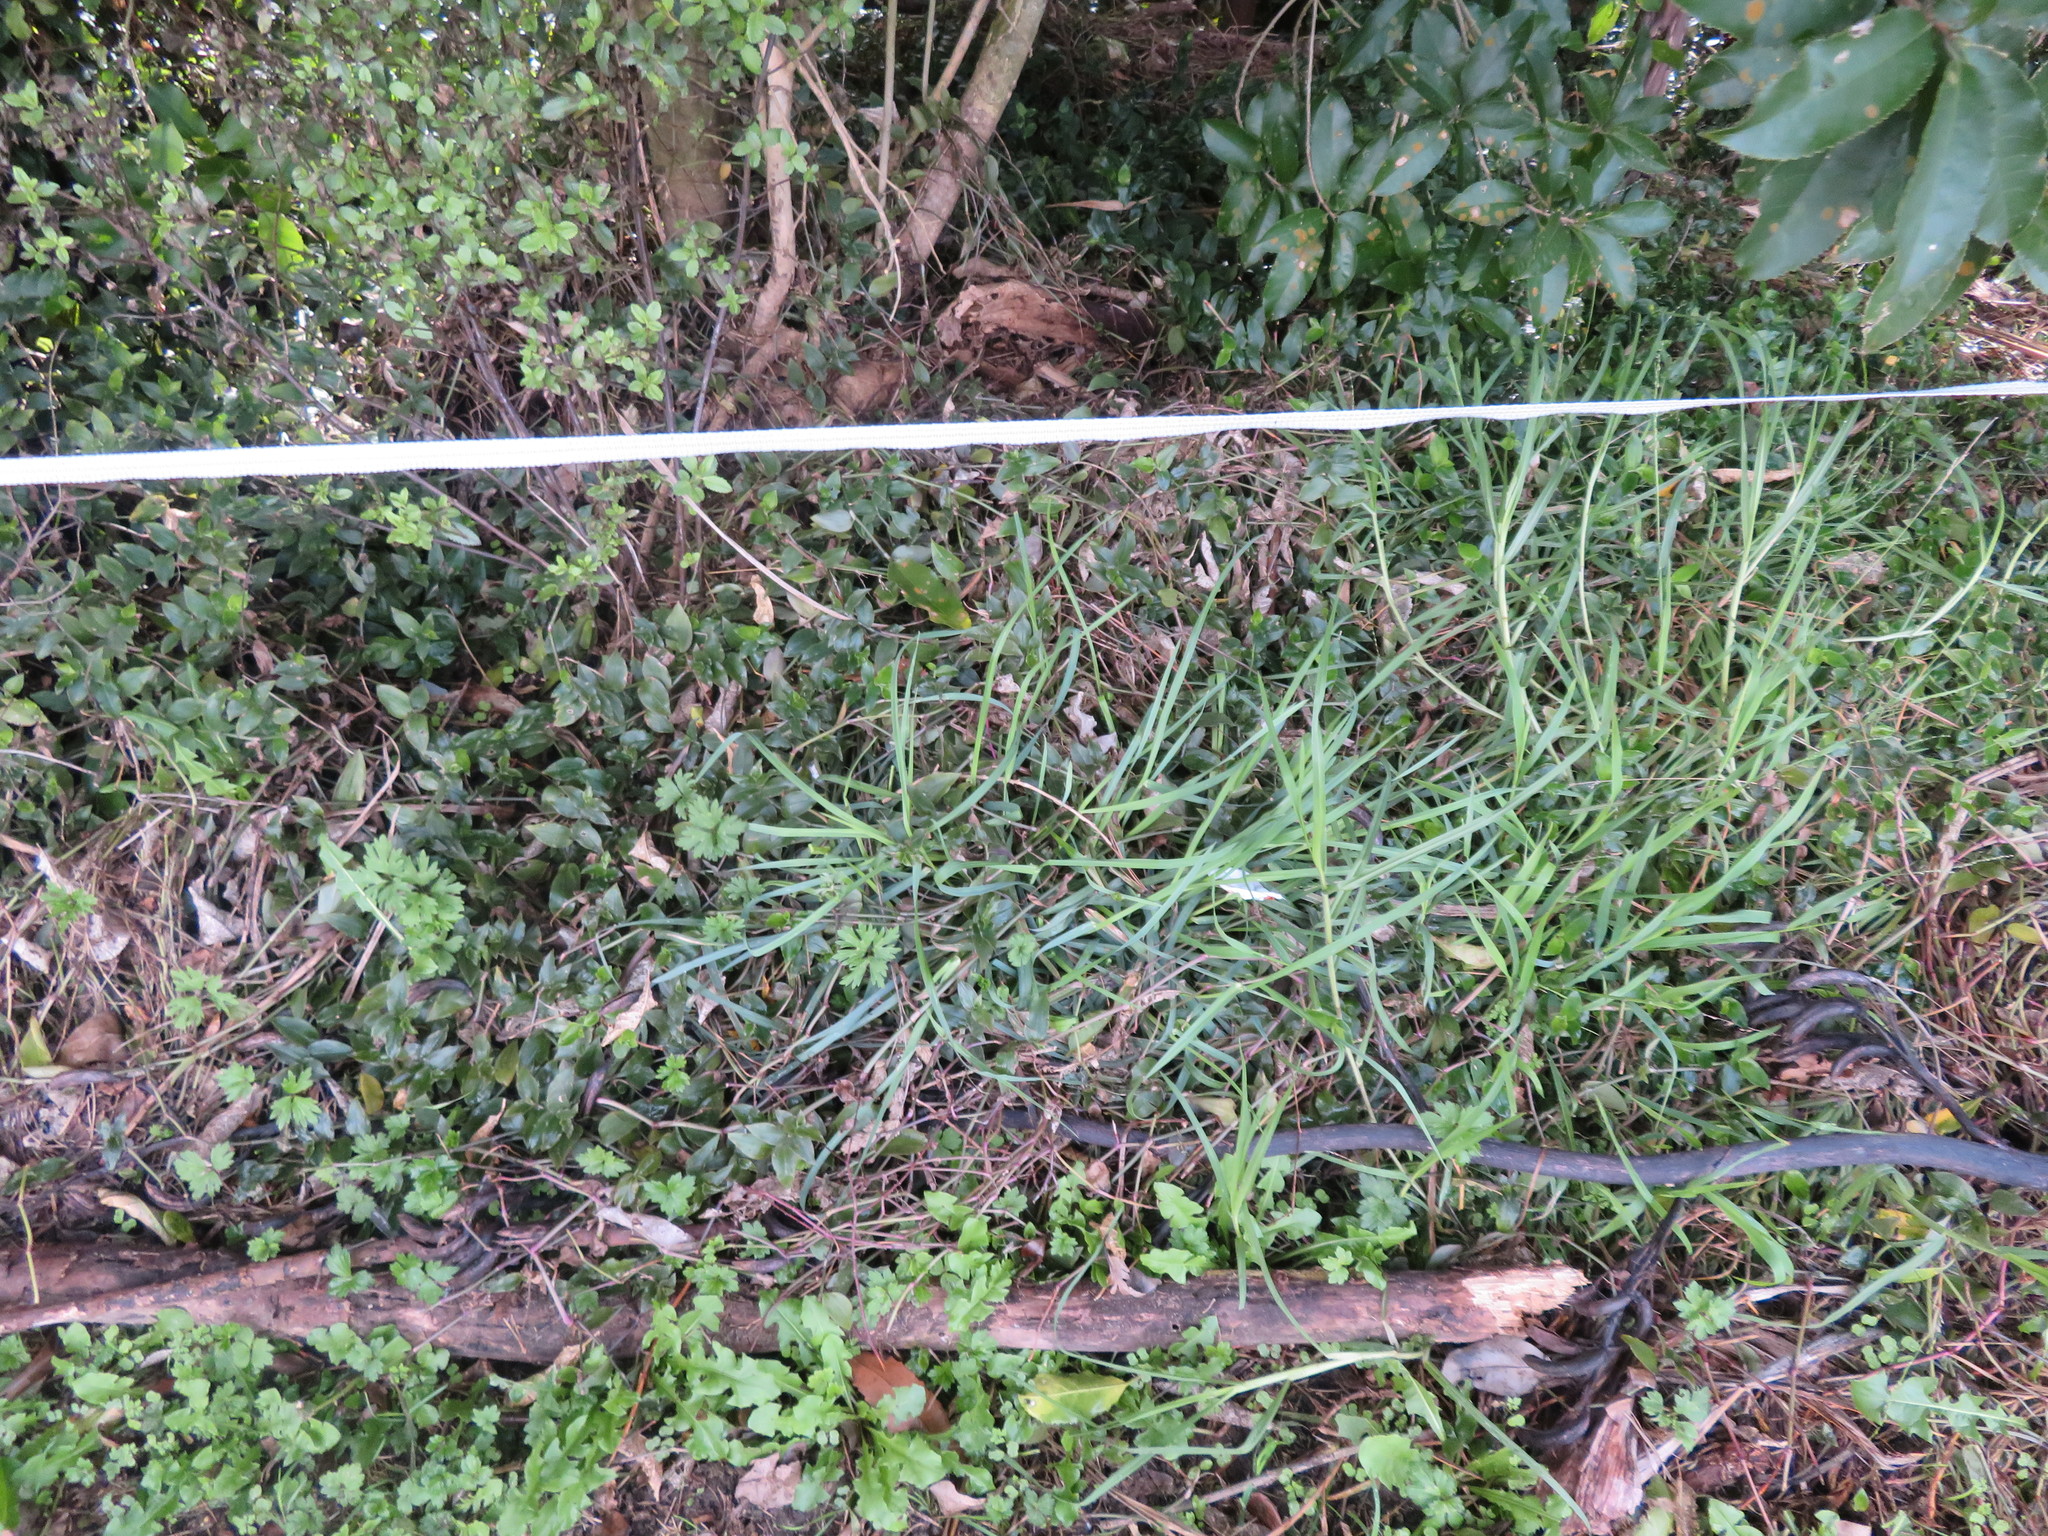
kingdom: Plantae
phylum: Tracheophyta
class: Liliopsida
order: Poales
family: Poaceae
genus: Cenchrus
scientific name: Cenchrus clandestinus
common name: Kikuyugrass
